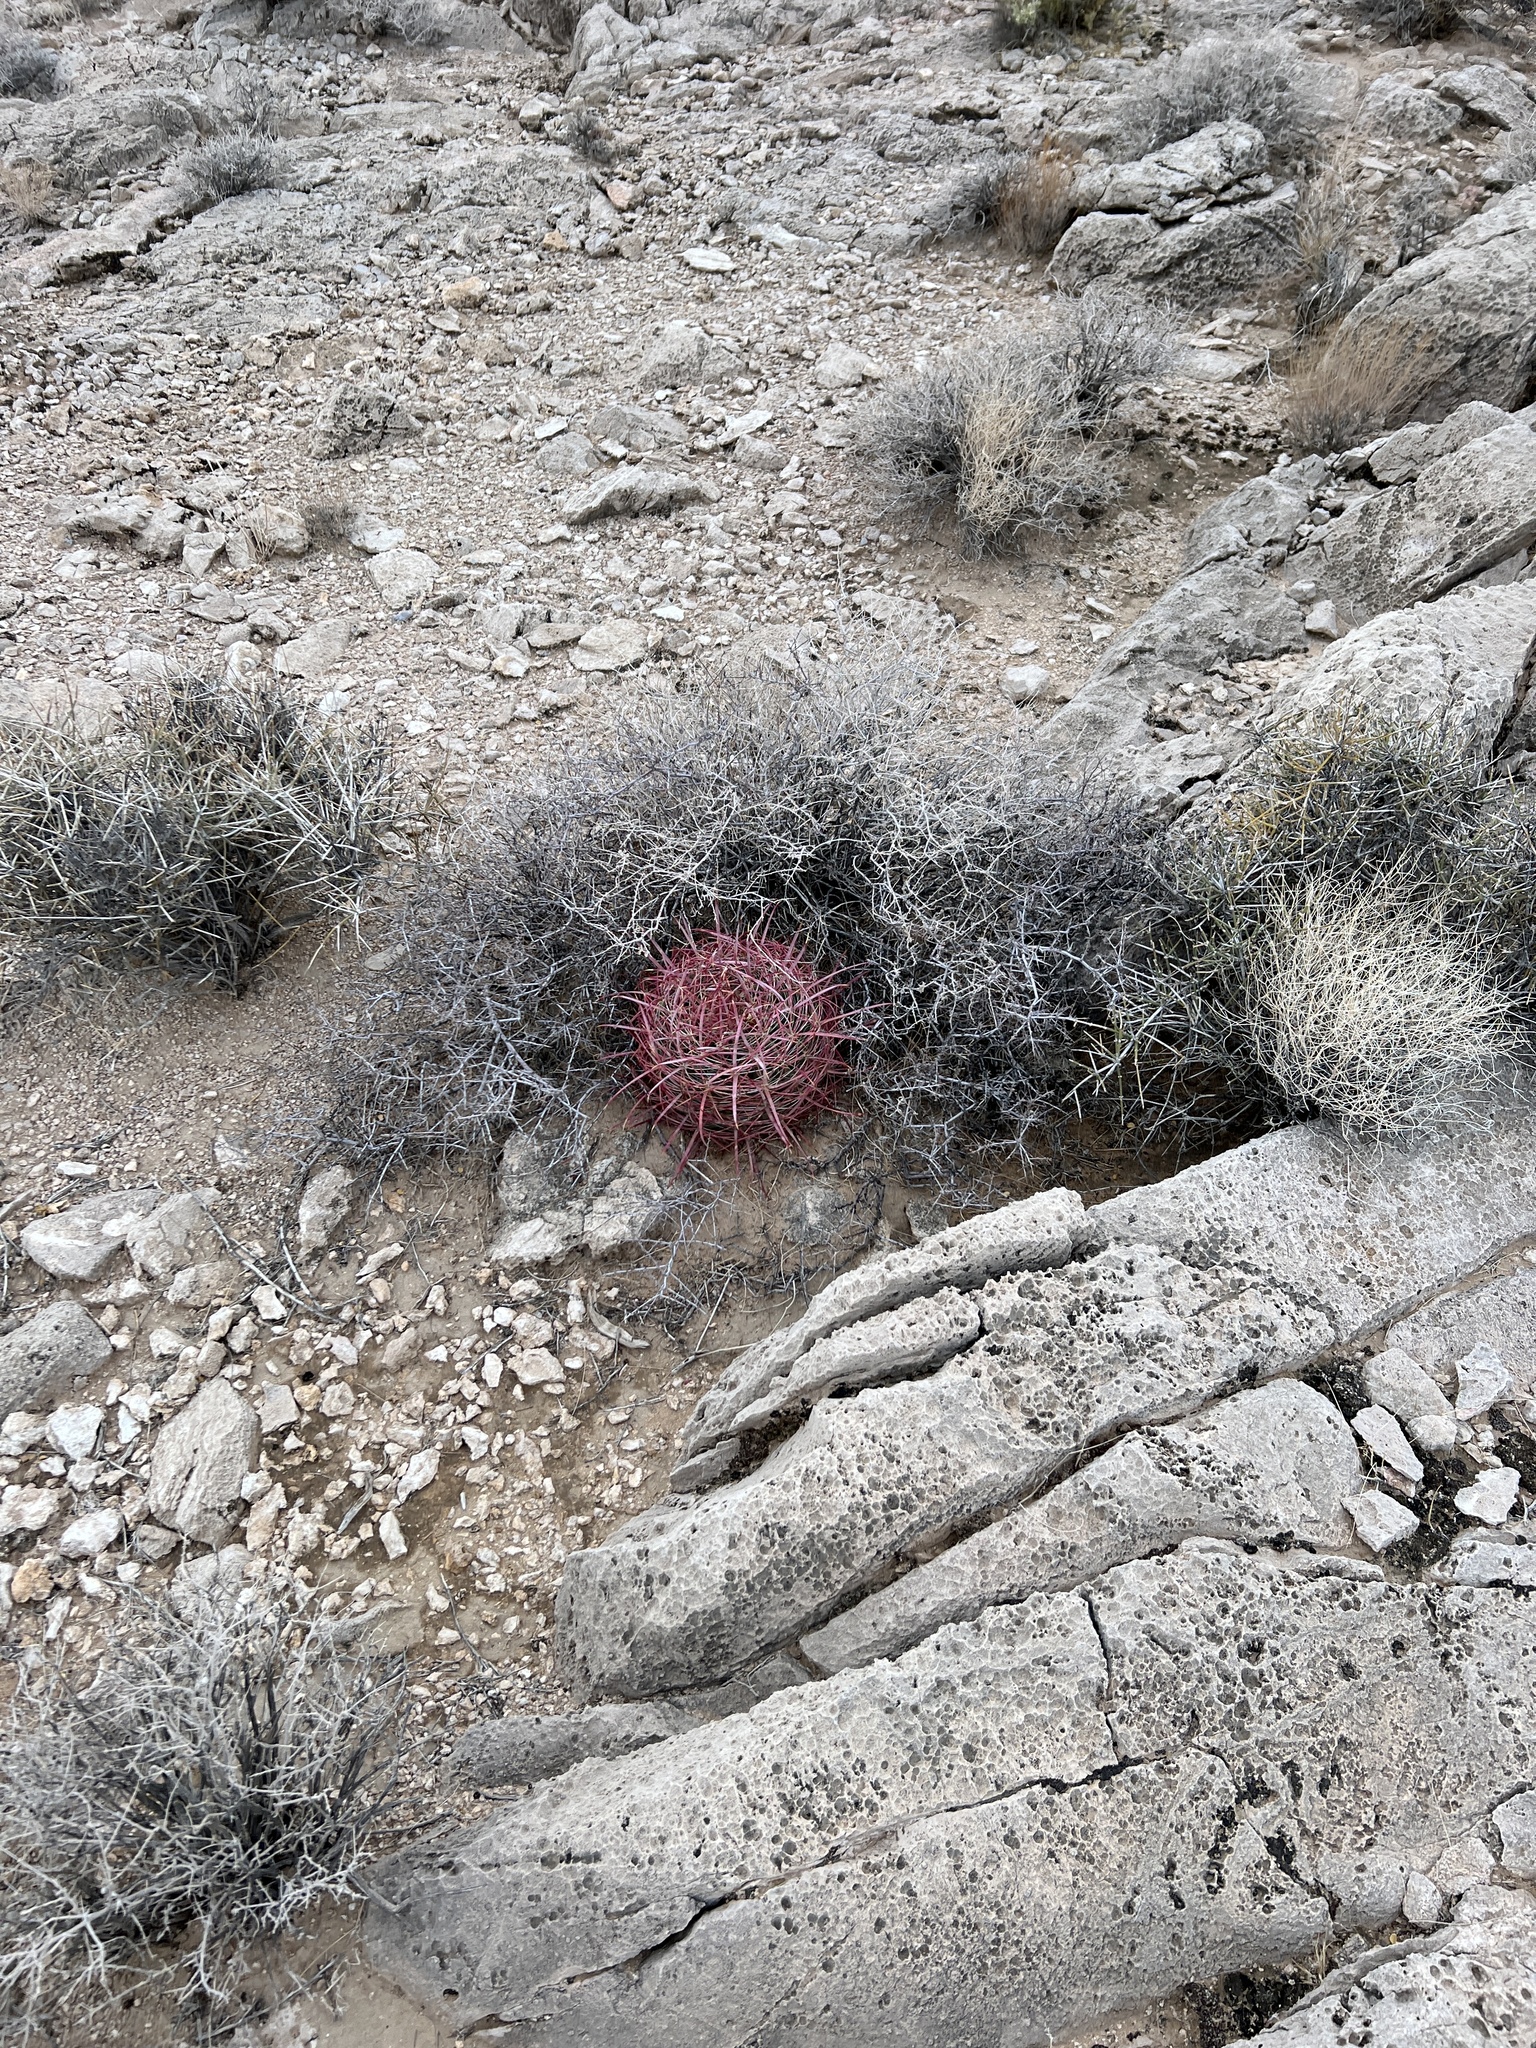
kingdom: Plantae
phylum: Tracheophyta
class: Magnoliopsida
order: Caryophyllales
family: Cactaceae
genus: Ferocactus
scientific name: Ferocactus cylindraceus
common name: California barrel cactus
